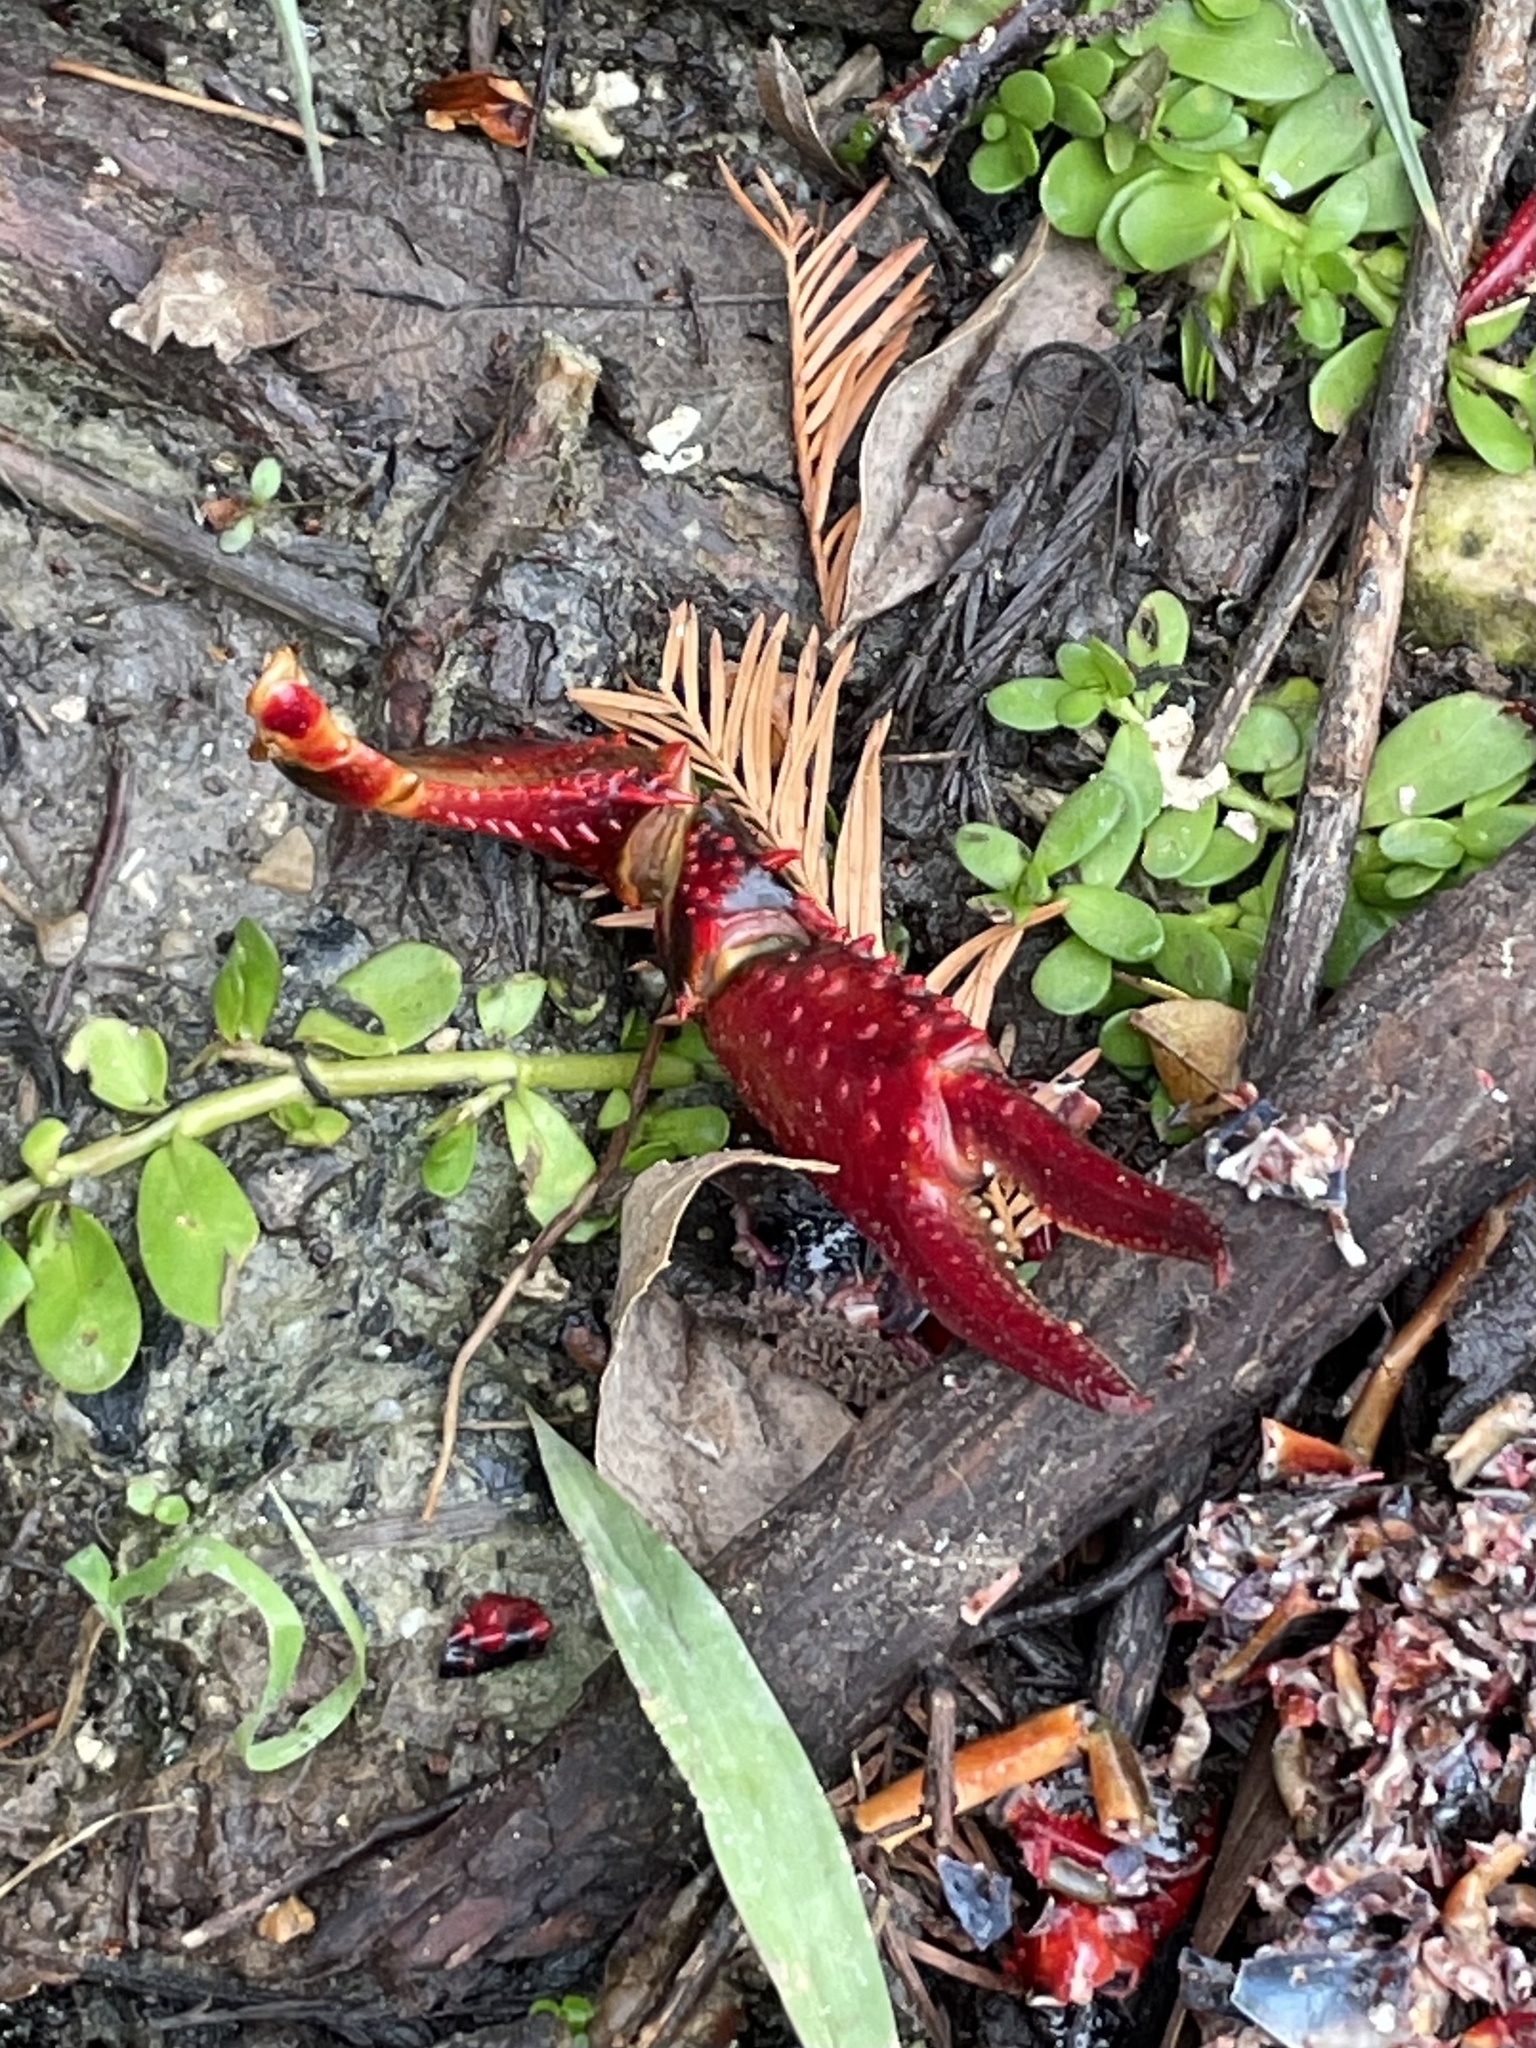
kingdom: Animalia
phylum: Arthropoda
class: Malacostraca
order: Decapoda
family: Cambaridae
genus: Procambarus
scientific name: Procambarus clarkii
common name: Red swamp crayfish
